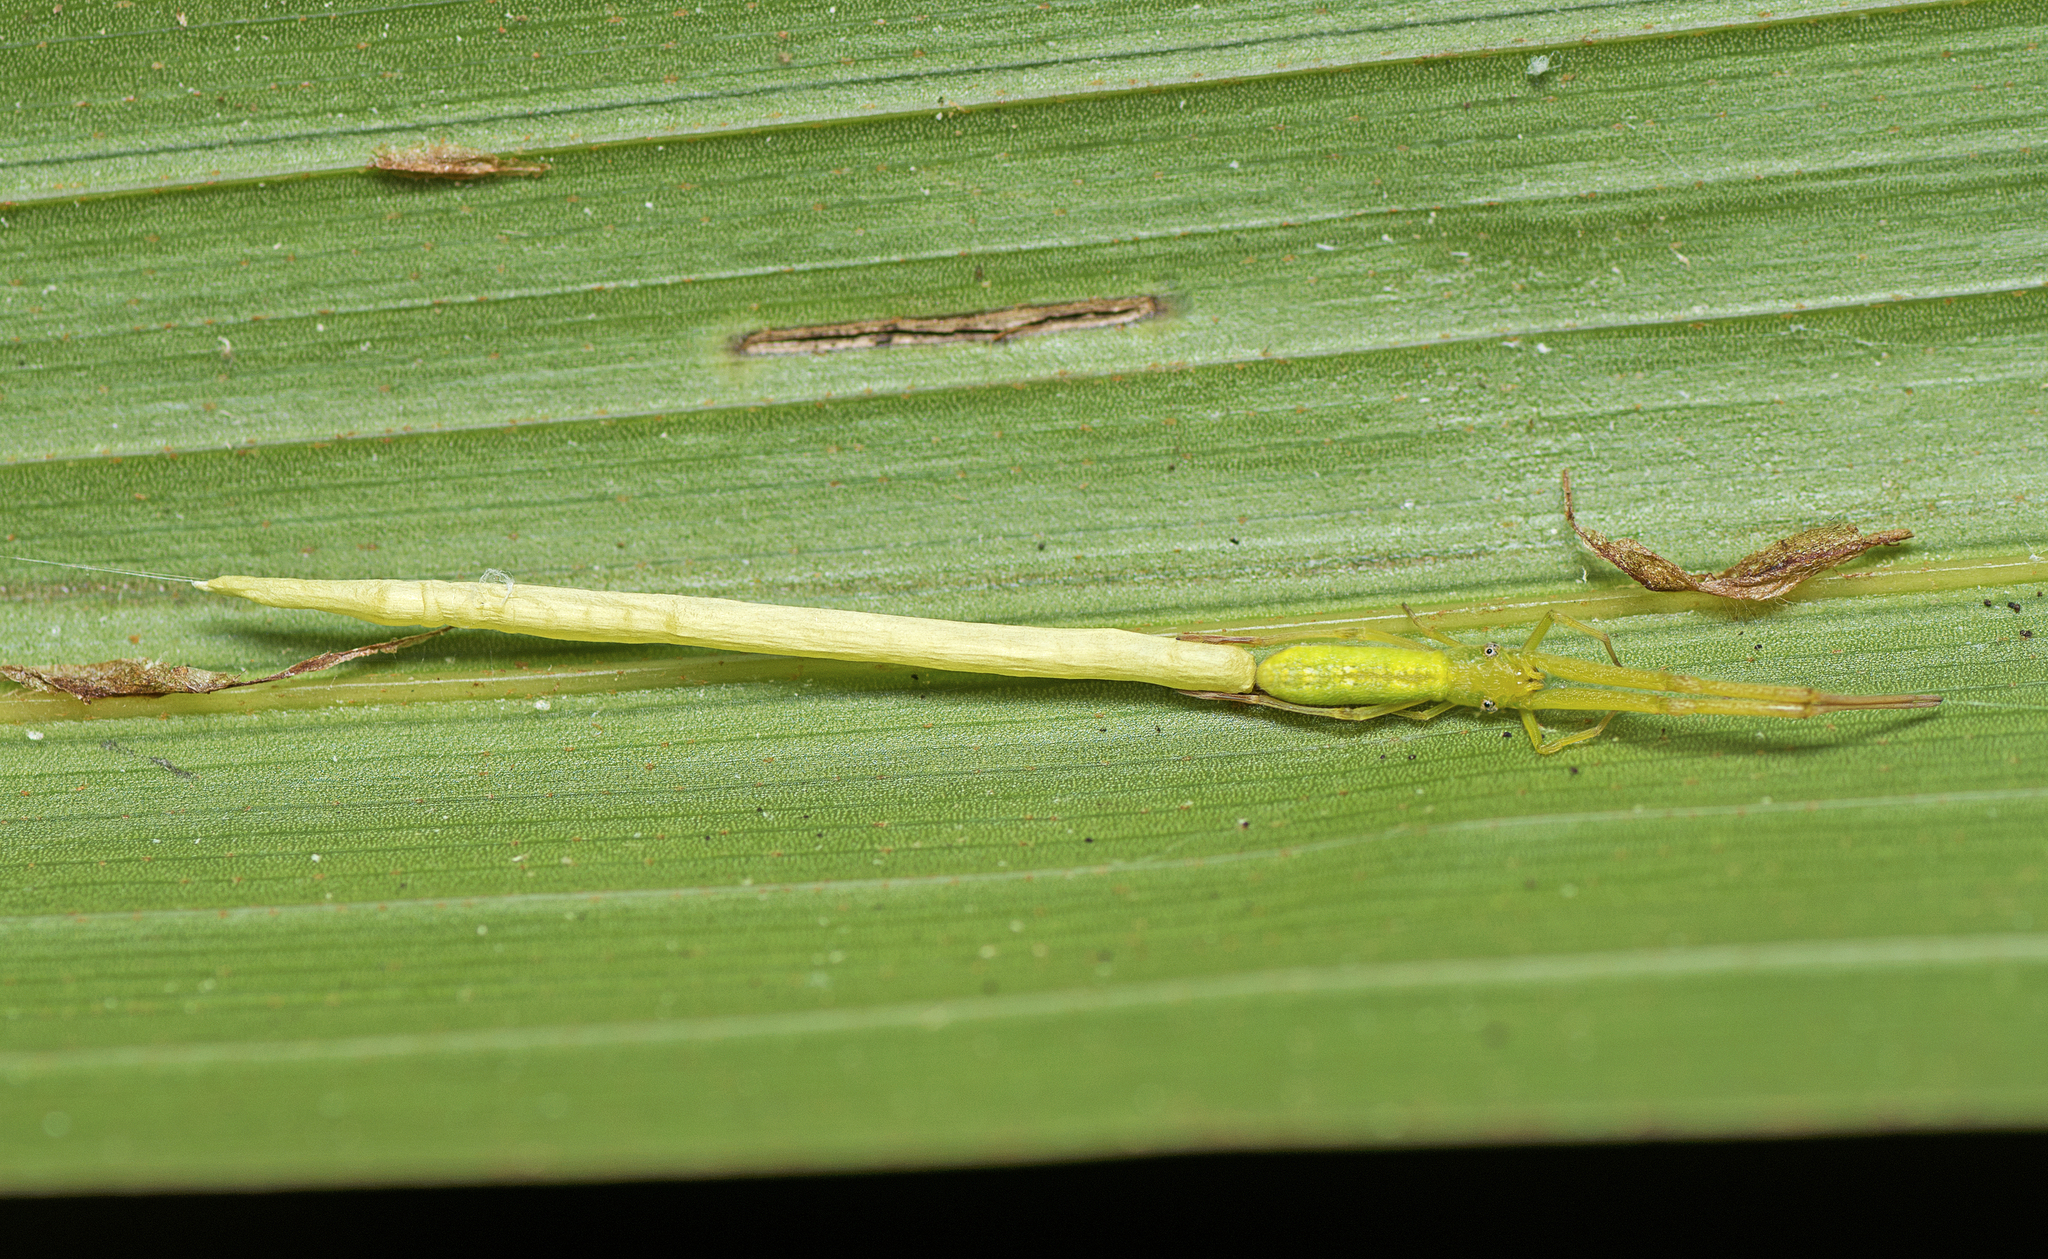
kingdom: Animalia
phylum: Arthropoda
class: Arachnida
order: Araneae
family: Uloboridae
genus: Miagrammopes
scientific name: Miagrammopes flavus
